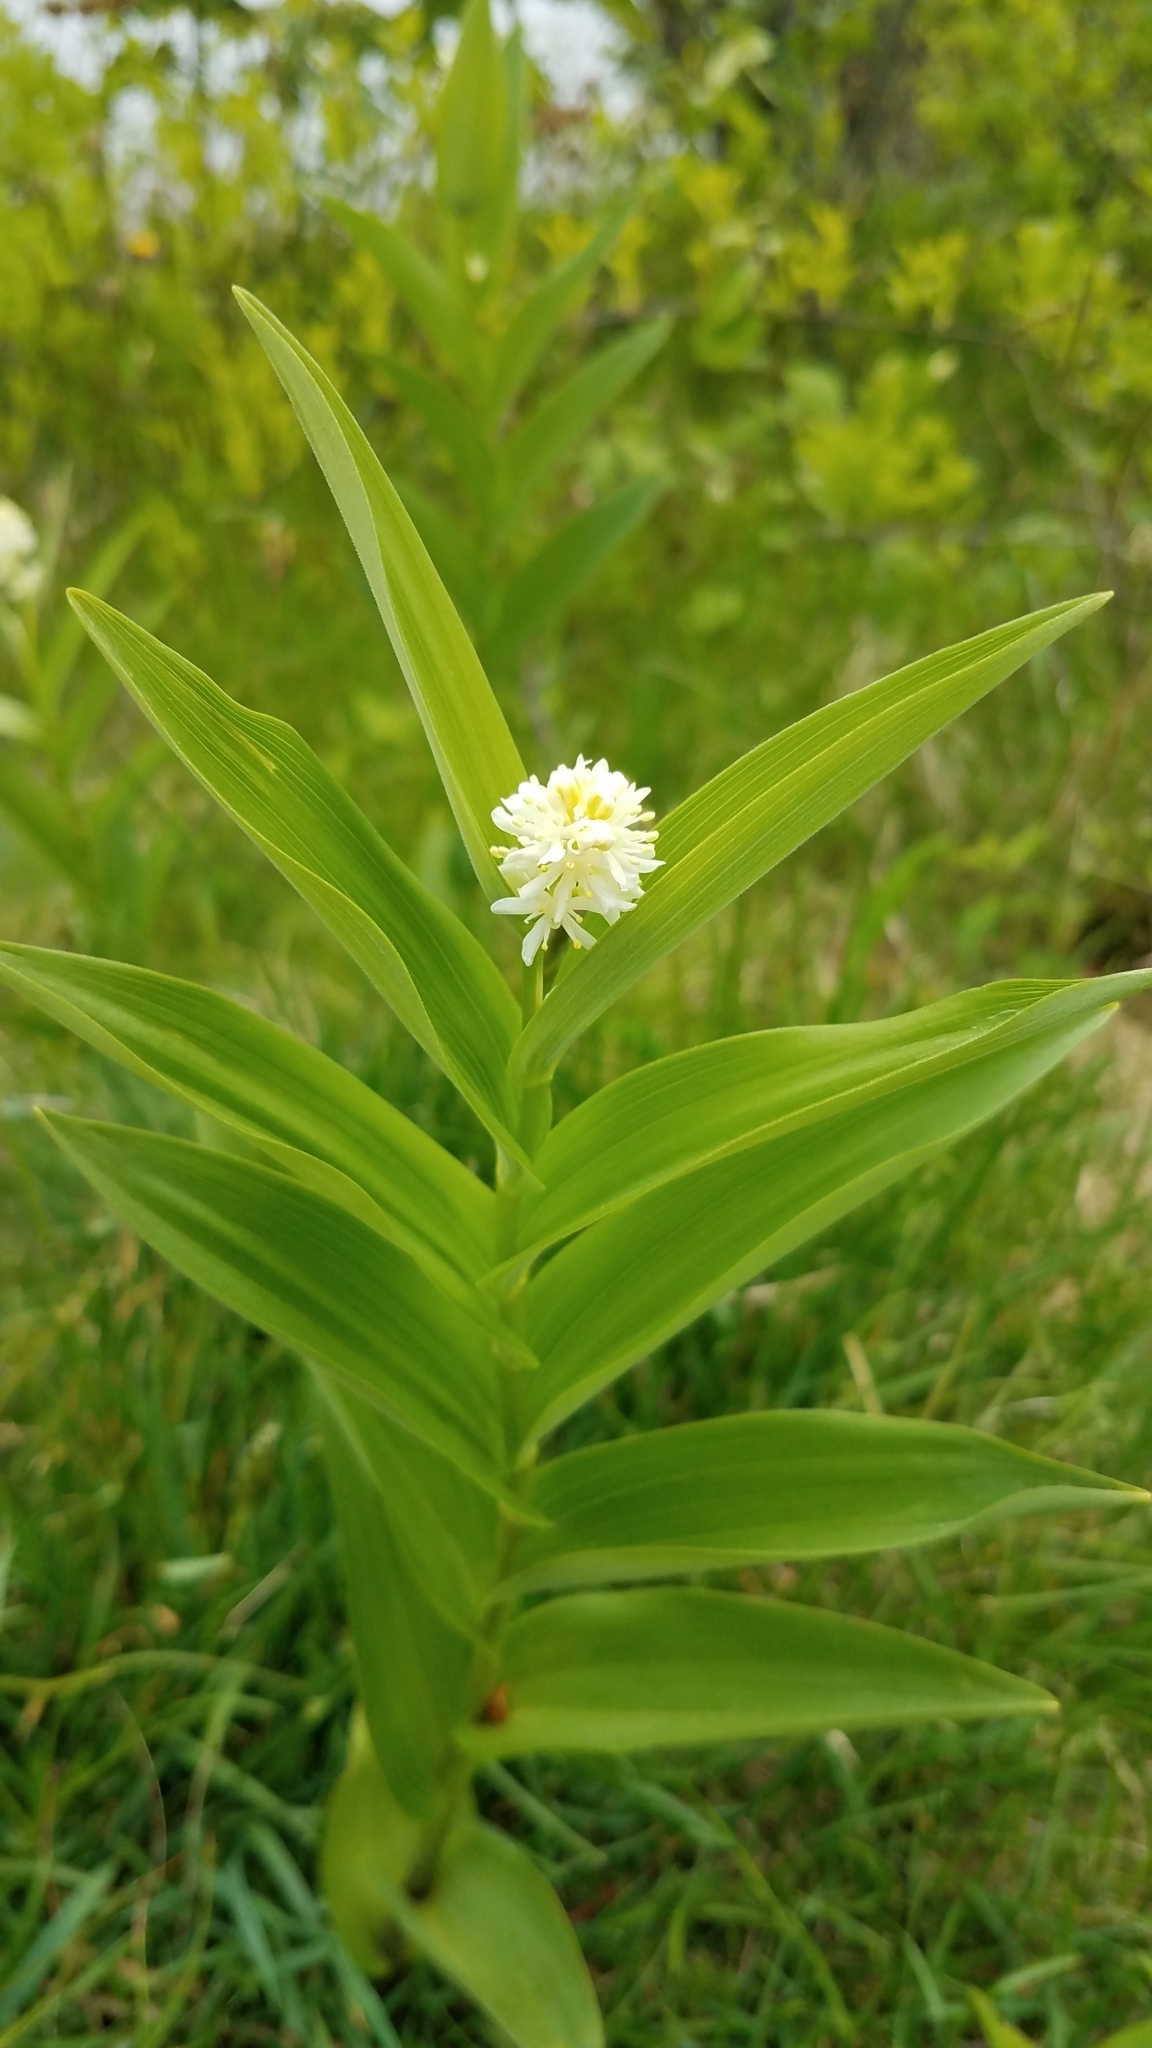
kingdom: Plantae
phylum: Tracheophyta
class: Liliopsida
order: Asparagales
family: Asparagaceae
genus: Maianthemum
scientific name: Maianthemum stellatum
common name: Little false solomon's seal
